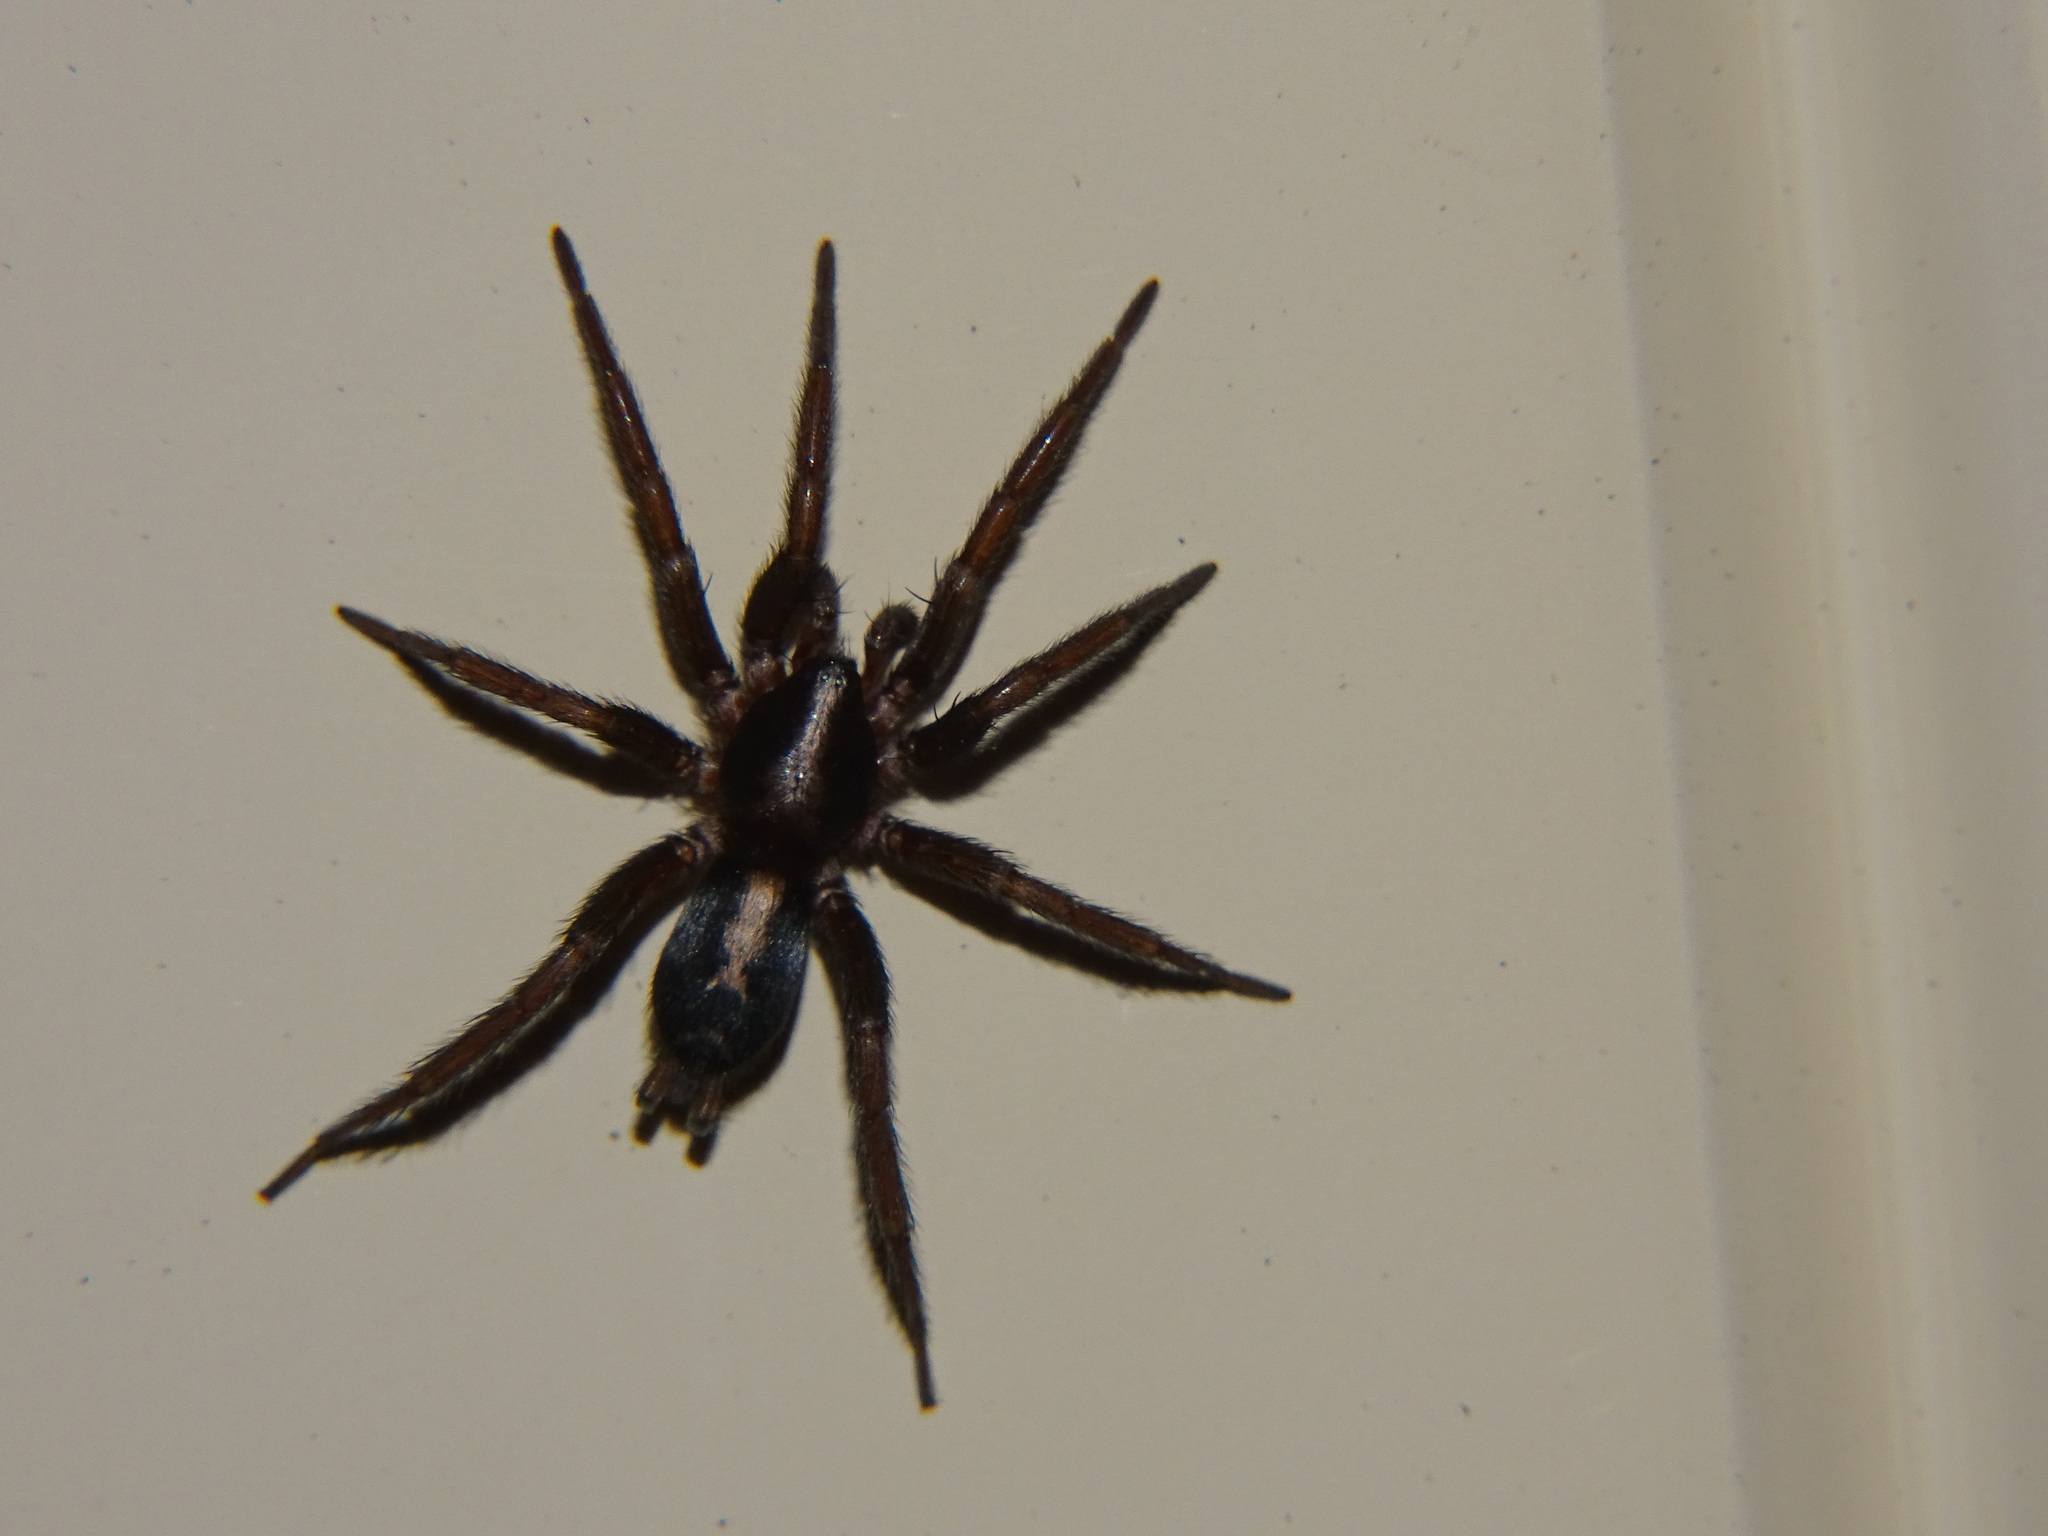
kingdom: Animalia
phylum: Arthropoda
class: Arachnida
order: Araneae
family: Gnaphosidae
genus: Herpyllus
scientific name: Herpyllus propinquus
